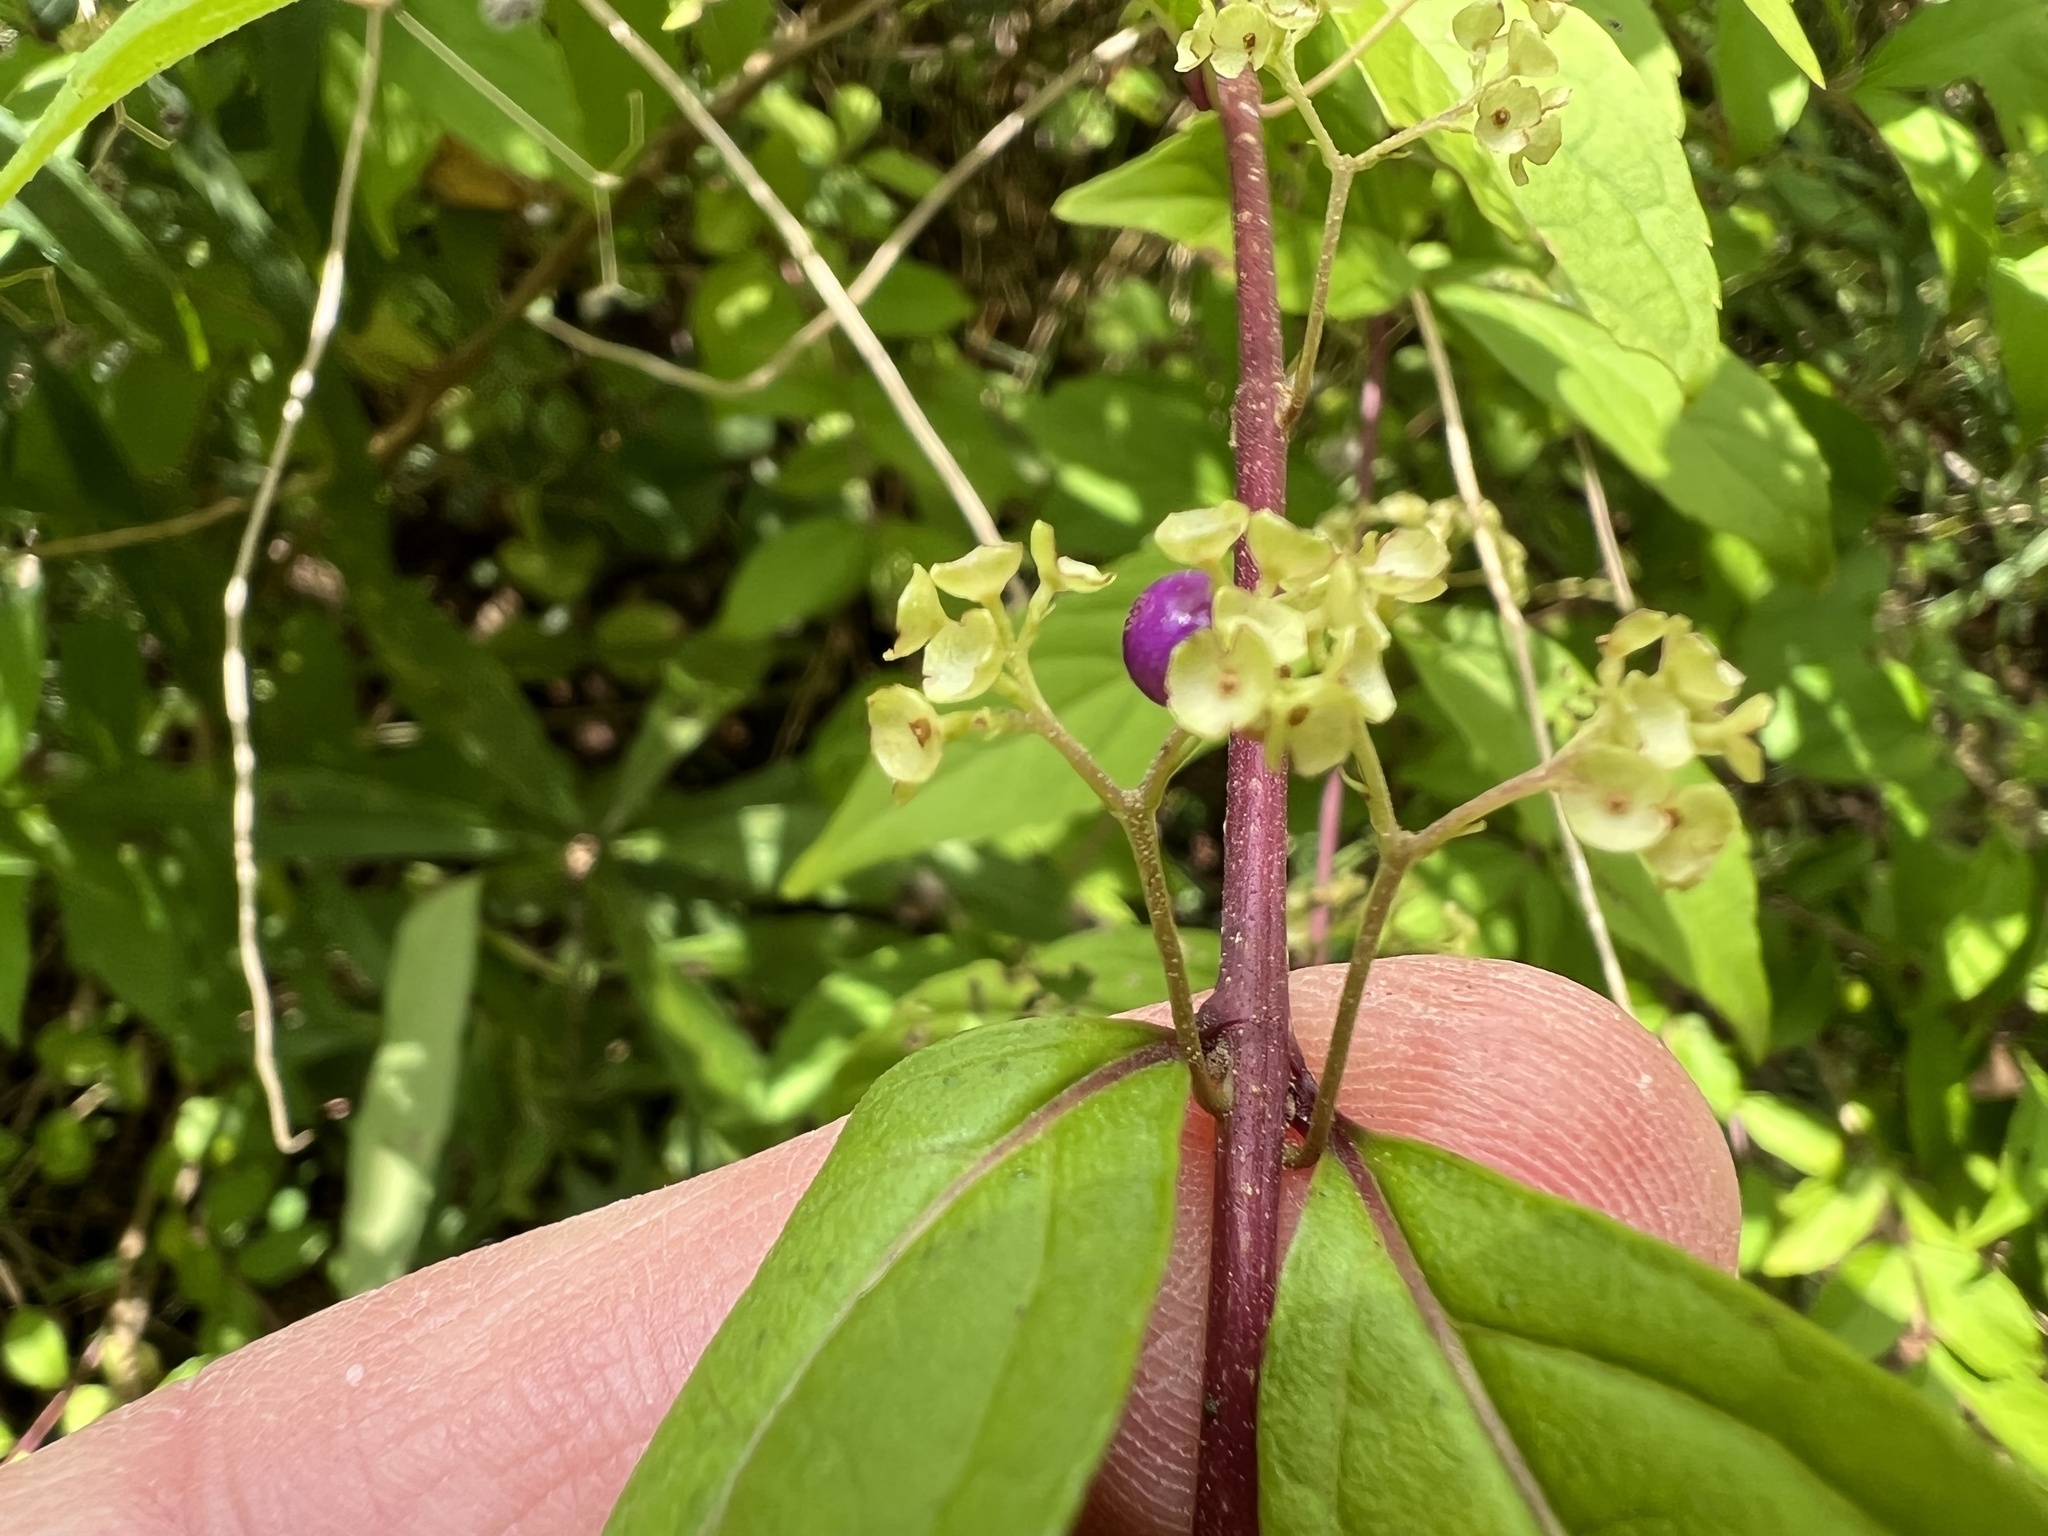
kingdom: Plantae
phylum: Tracheophyta
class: Magnoliopsida
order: Lamiales
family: Lamiaceae
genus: Callicarpa
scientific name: Callicarpa dichotoma
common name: Purple beauty-berry
